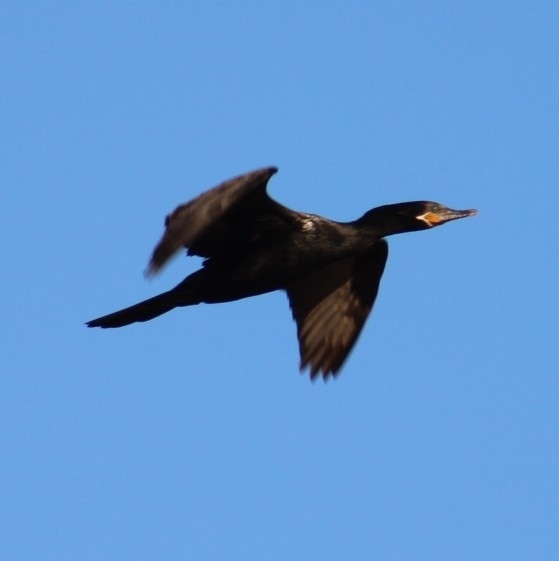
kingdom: Animalia
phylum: Chordata
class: Aves
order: Suliformes
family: Phalacrocoracidae
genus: Phalacrocorax
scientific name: Phalacrocorax brasilianus
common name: Neotropic cormorant
